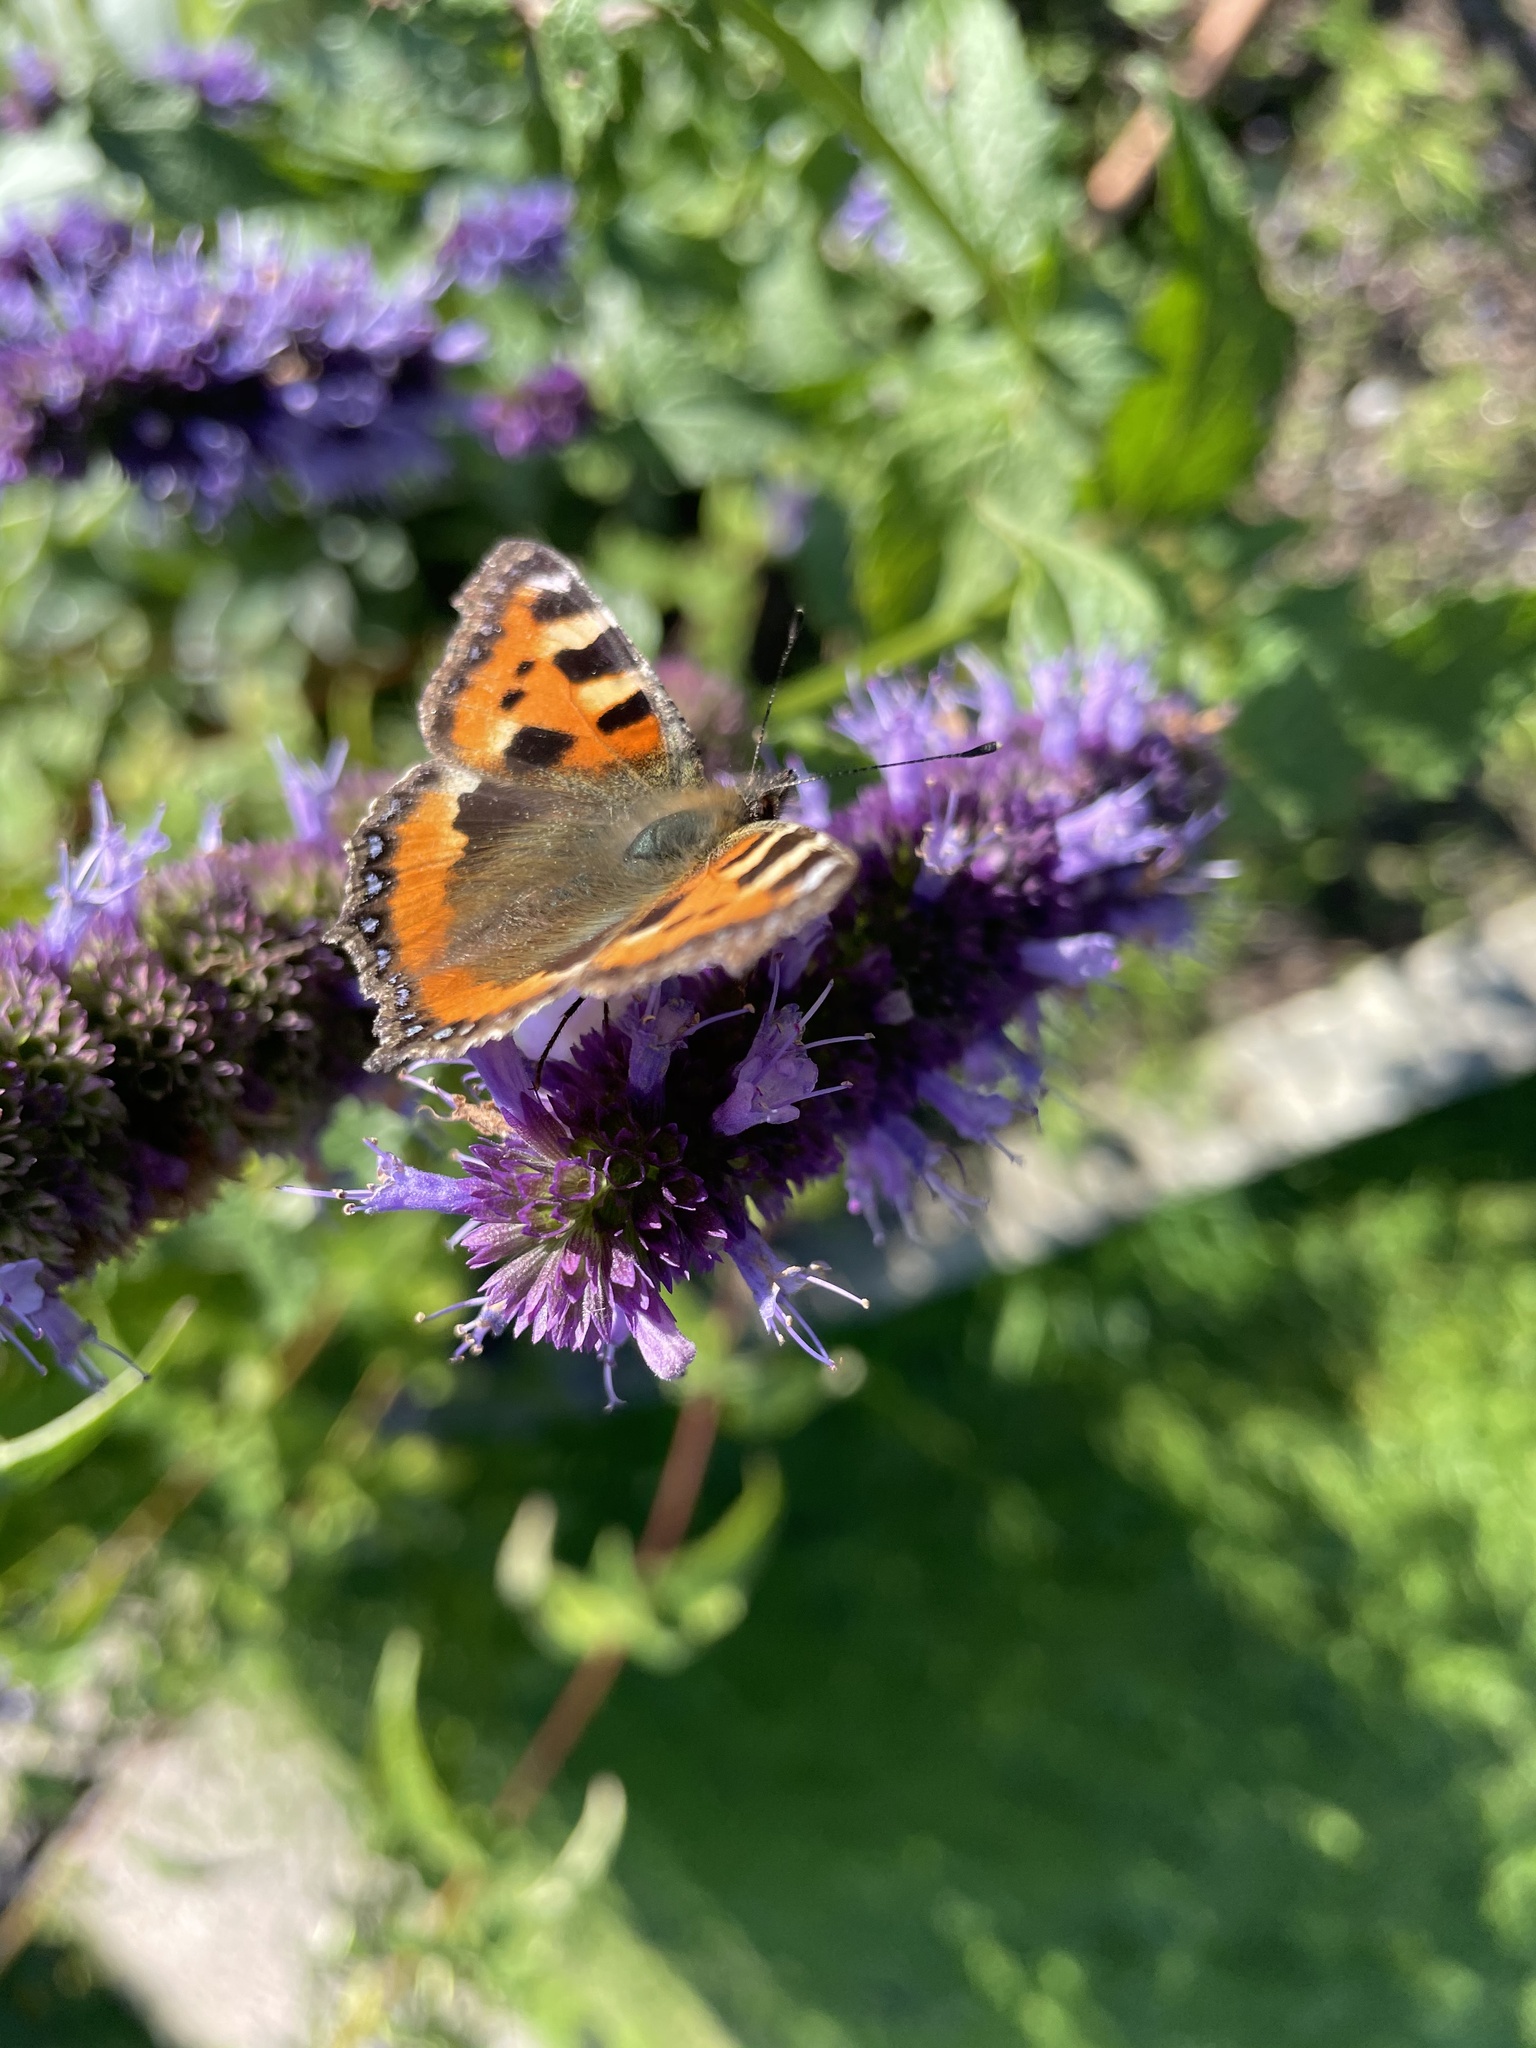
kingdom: Animalia
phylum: Arthropoda
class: Insecta
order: Lepidoptera
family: Nymphalidae
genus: Aglais
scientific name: Aglais urticae
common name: Small tortoiseshell
